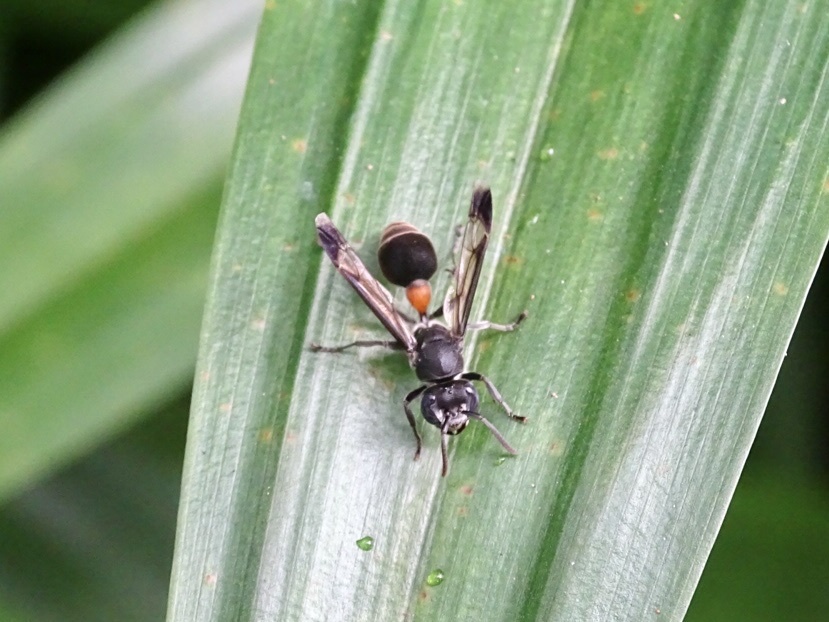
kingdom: Animalia
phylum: Arthropoda
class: Insecta
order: Hymenoptera
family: Vespidae
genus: Ropalidia
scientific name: Ropalidia sumatrae
